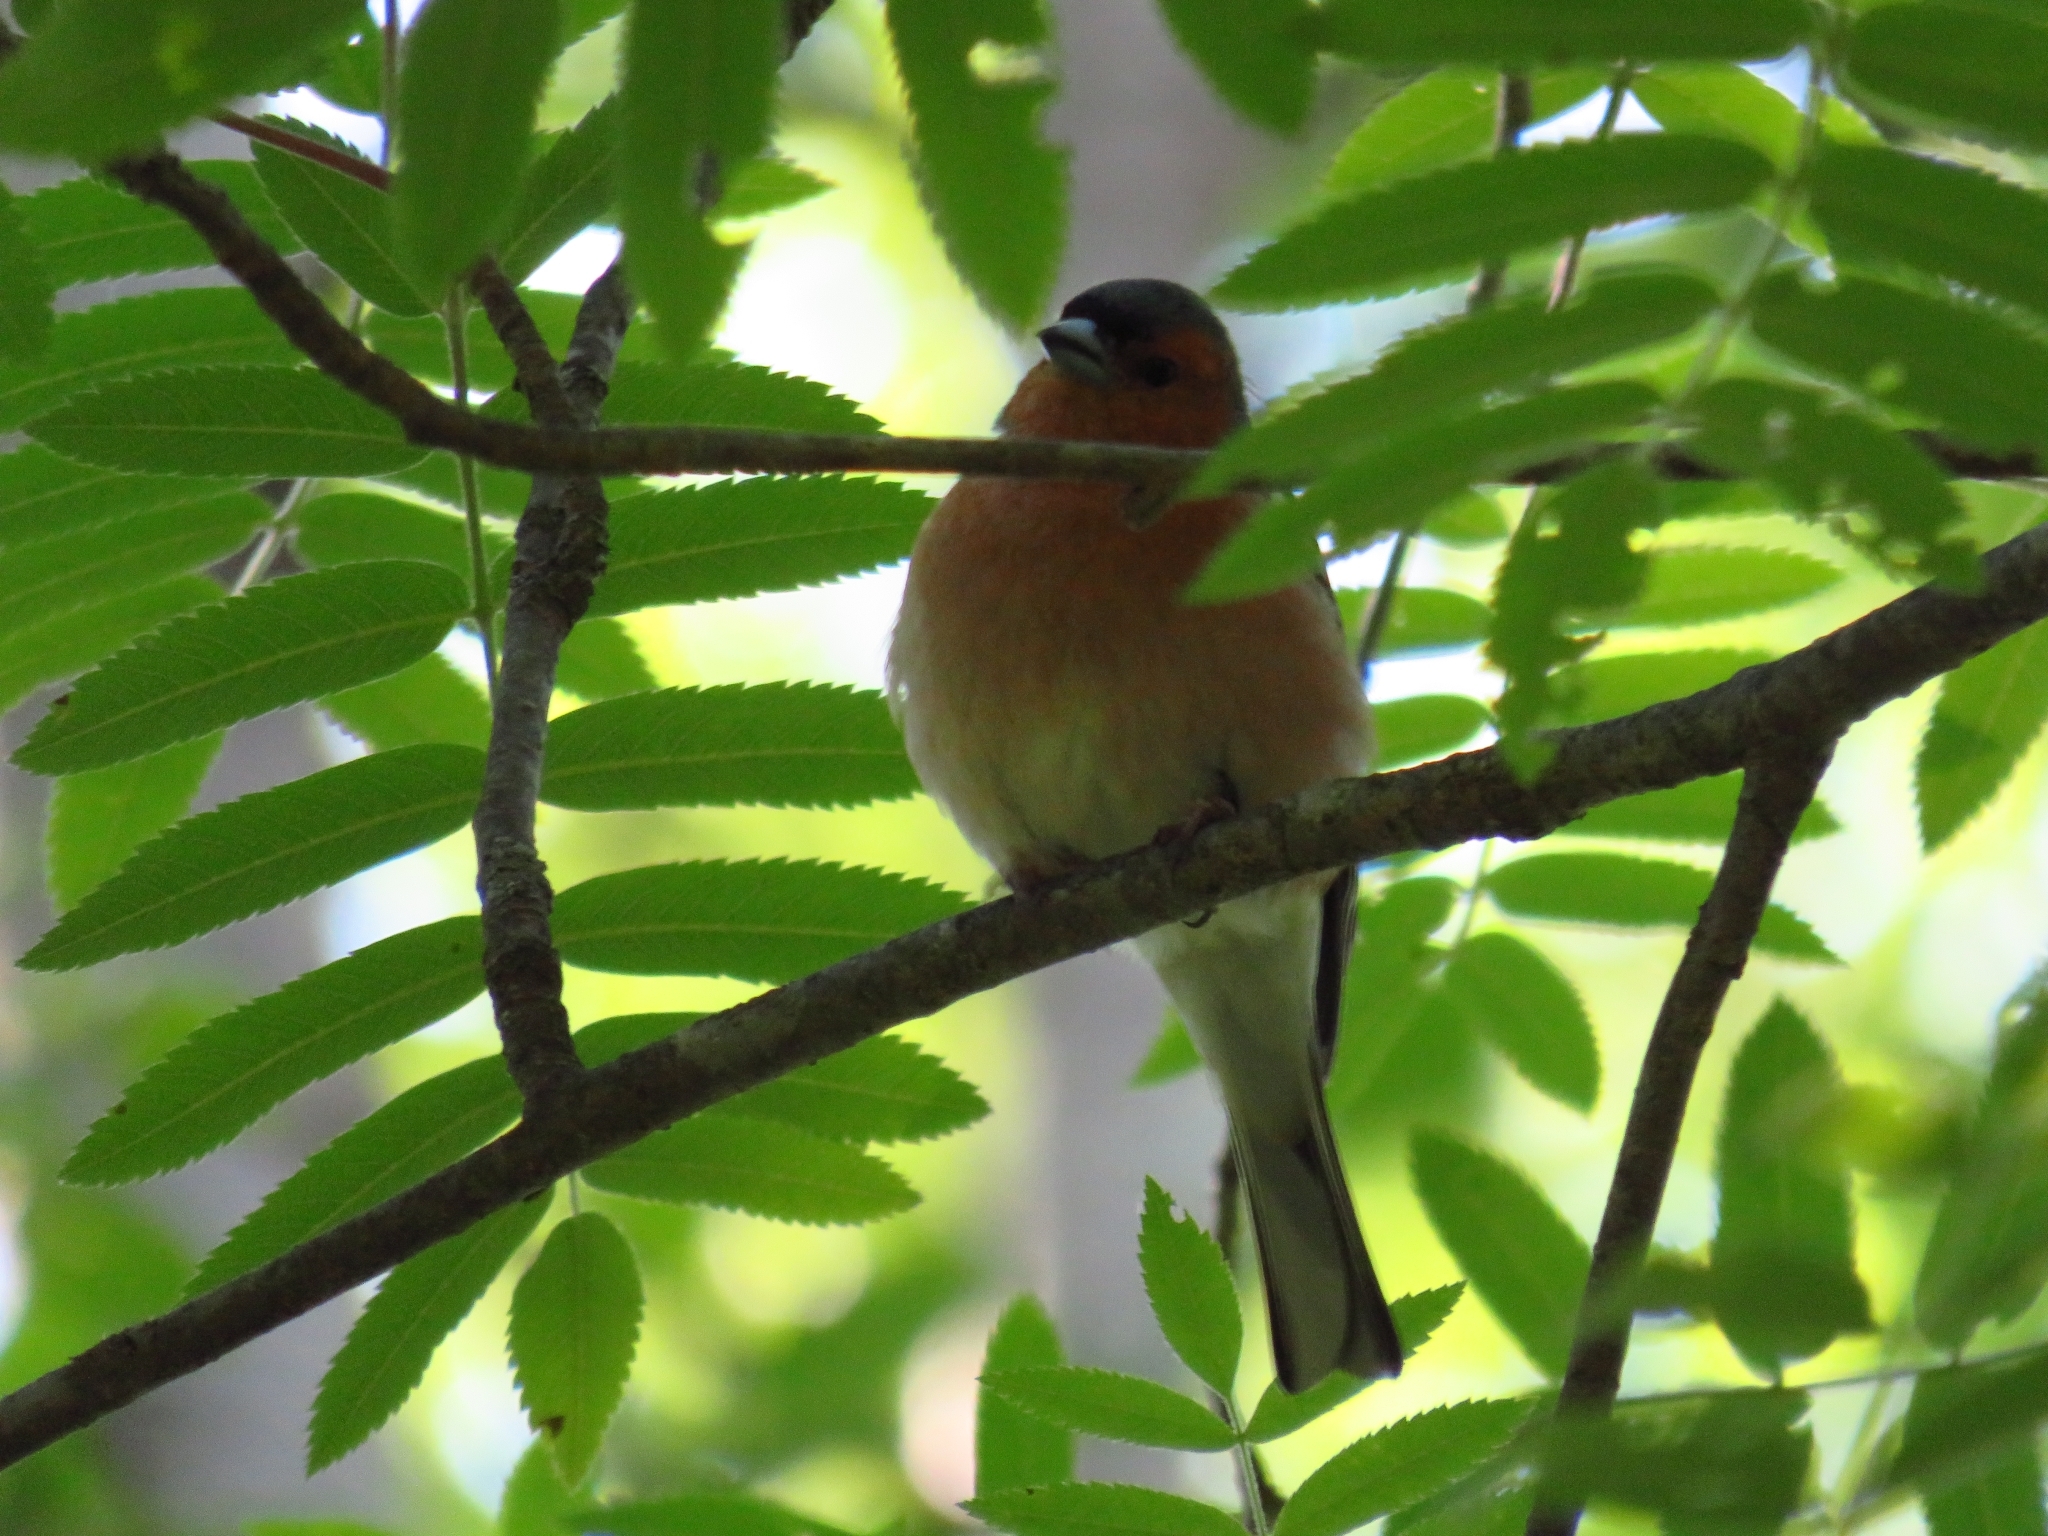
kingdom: Animalia
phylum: Chordata
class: Aves
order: Passeriformes
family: Fringillidae
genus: Fringilla
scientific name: Fringilla coelebs
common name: Common chaffinch
